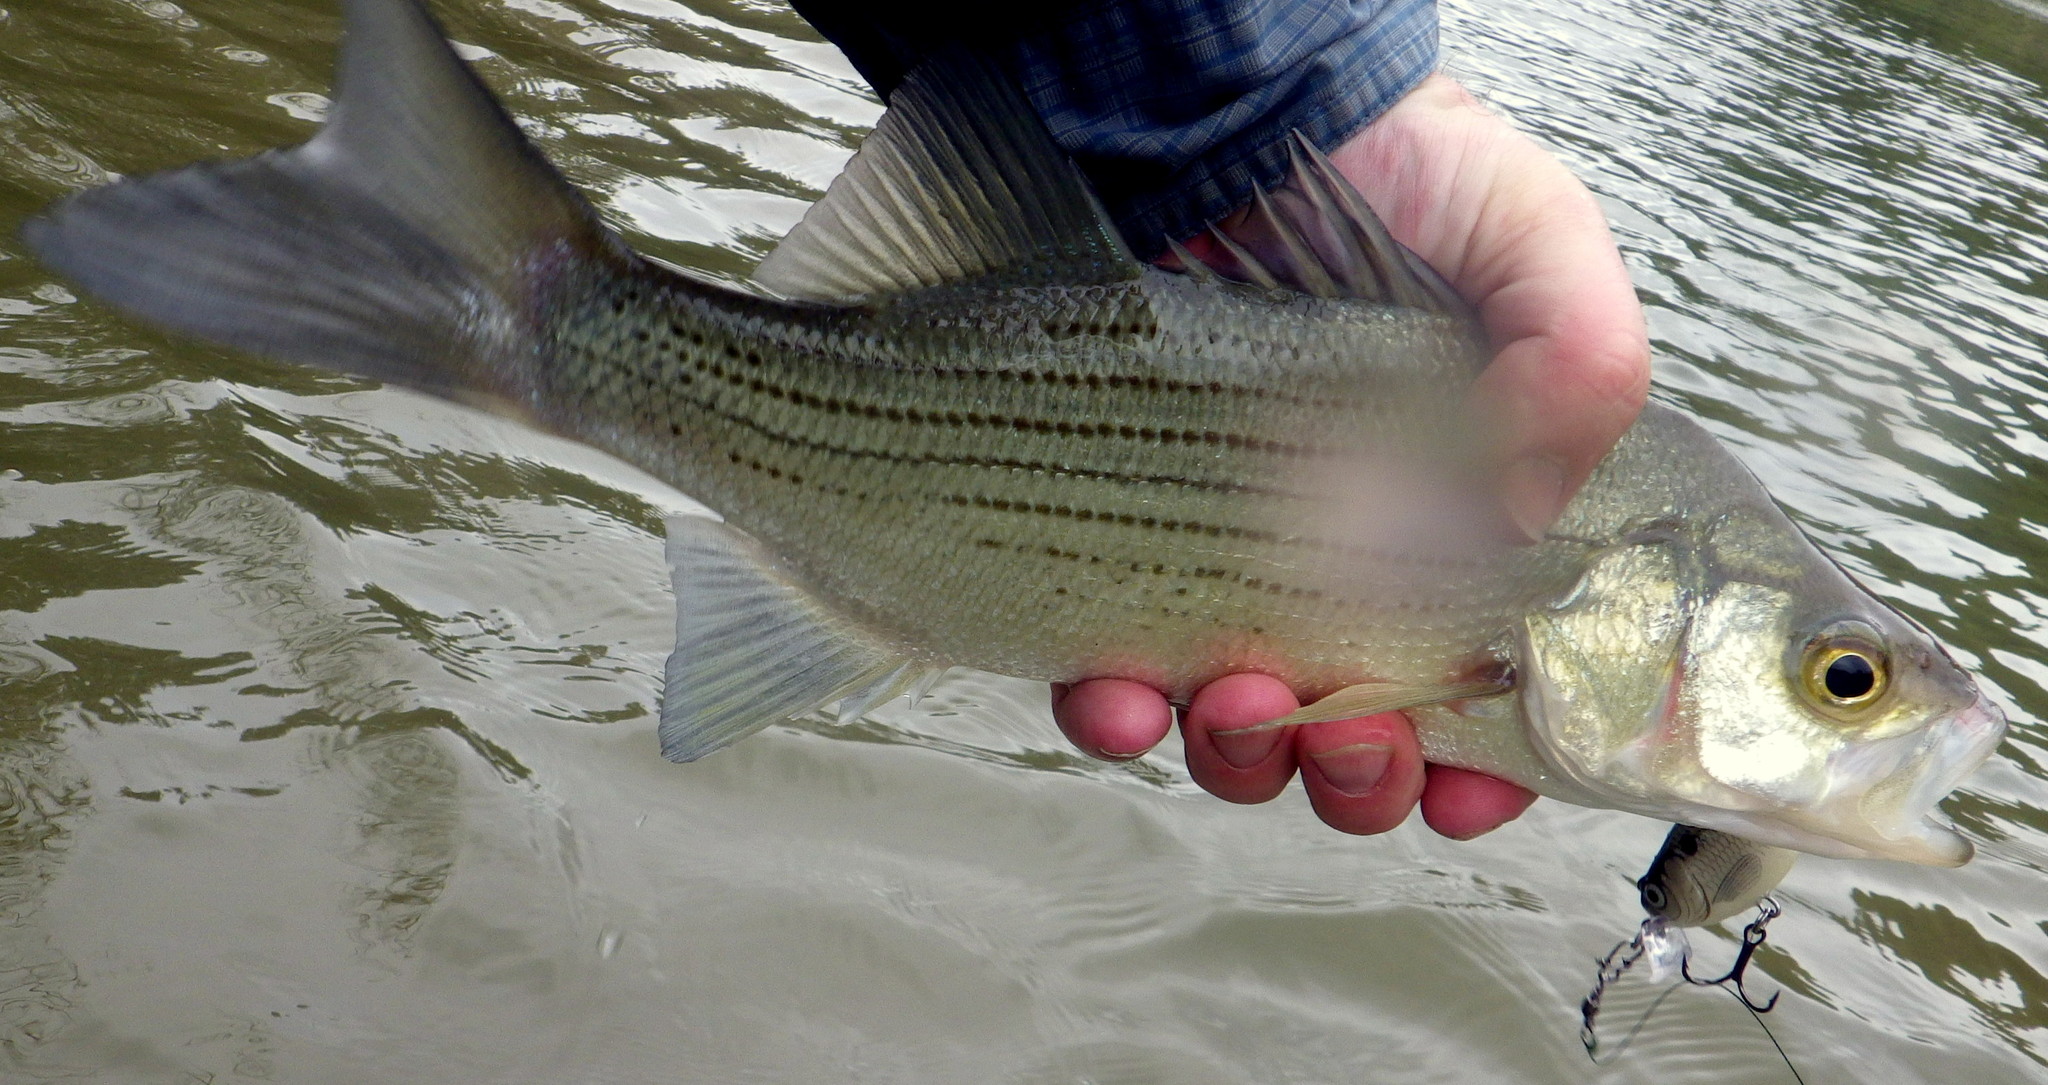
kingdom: Animalia
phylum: Chordata
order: Perciformes
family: Moronidae
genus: Morone
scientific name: Morone chrysops
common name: White bass
